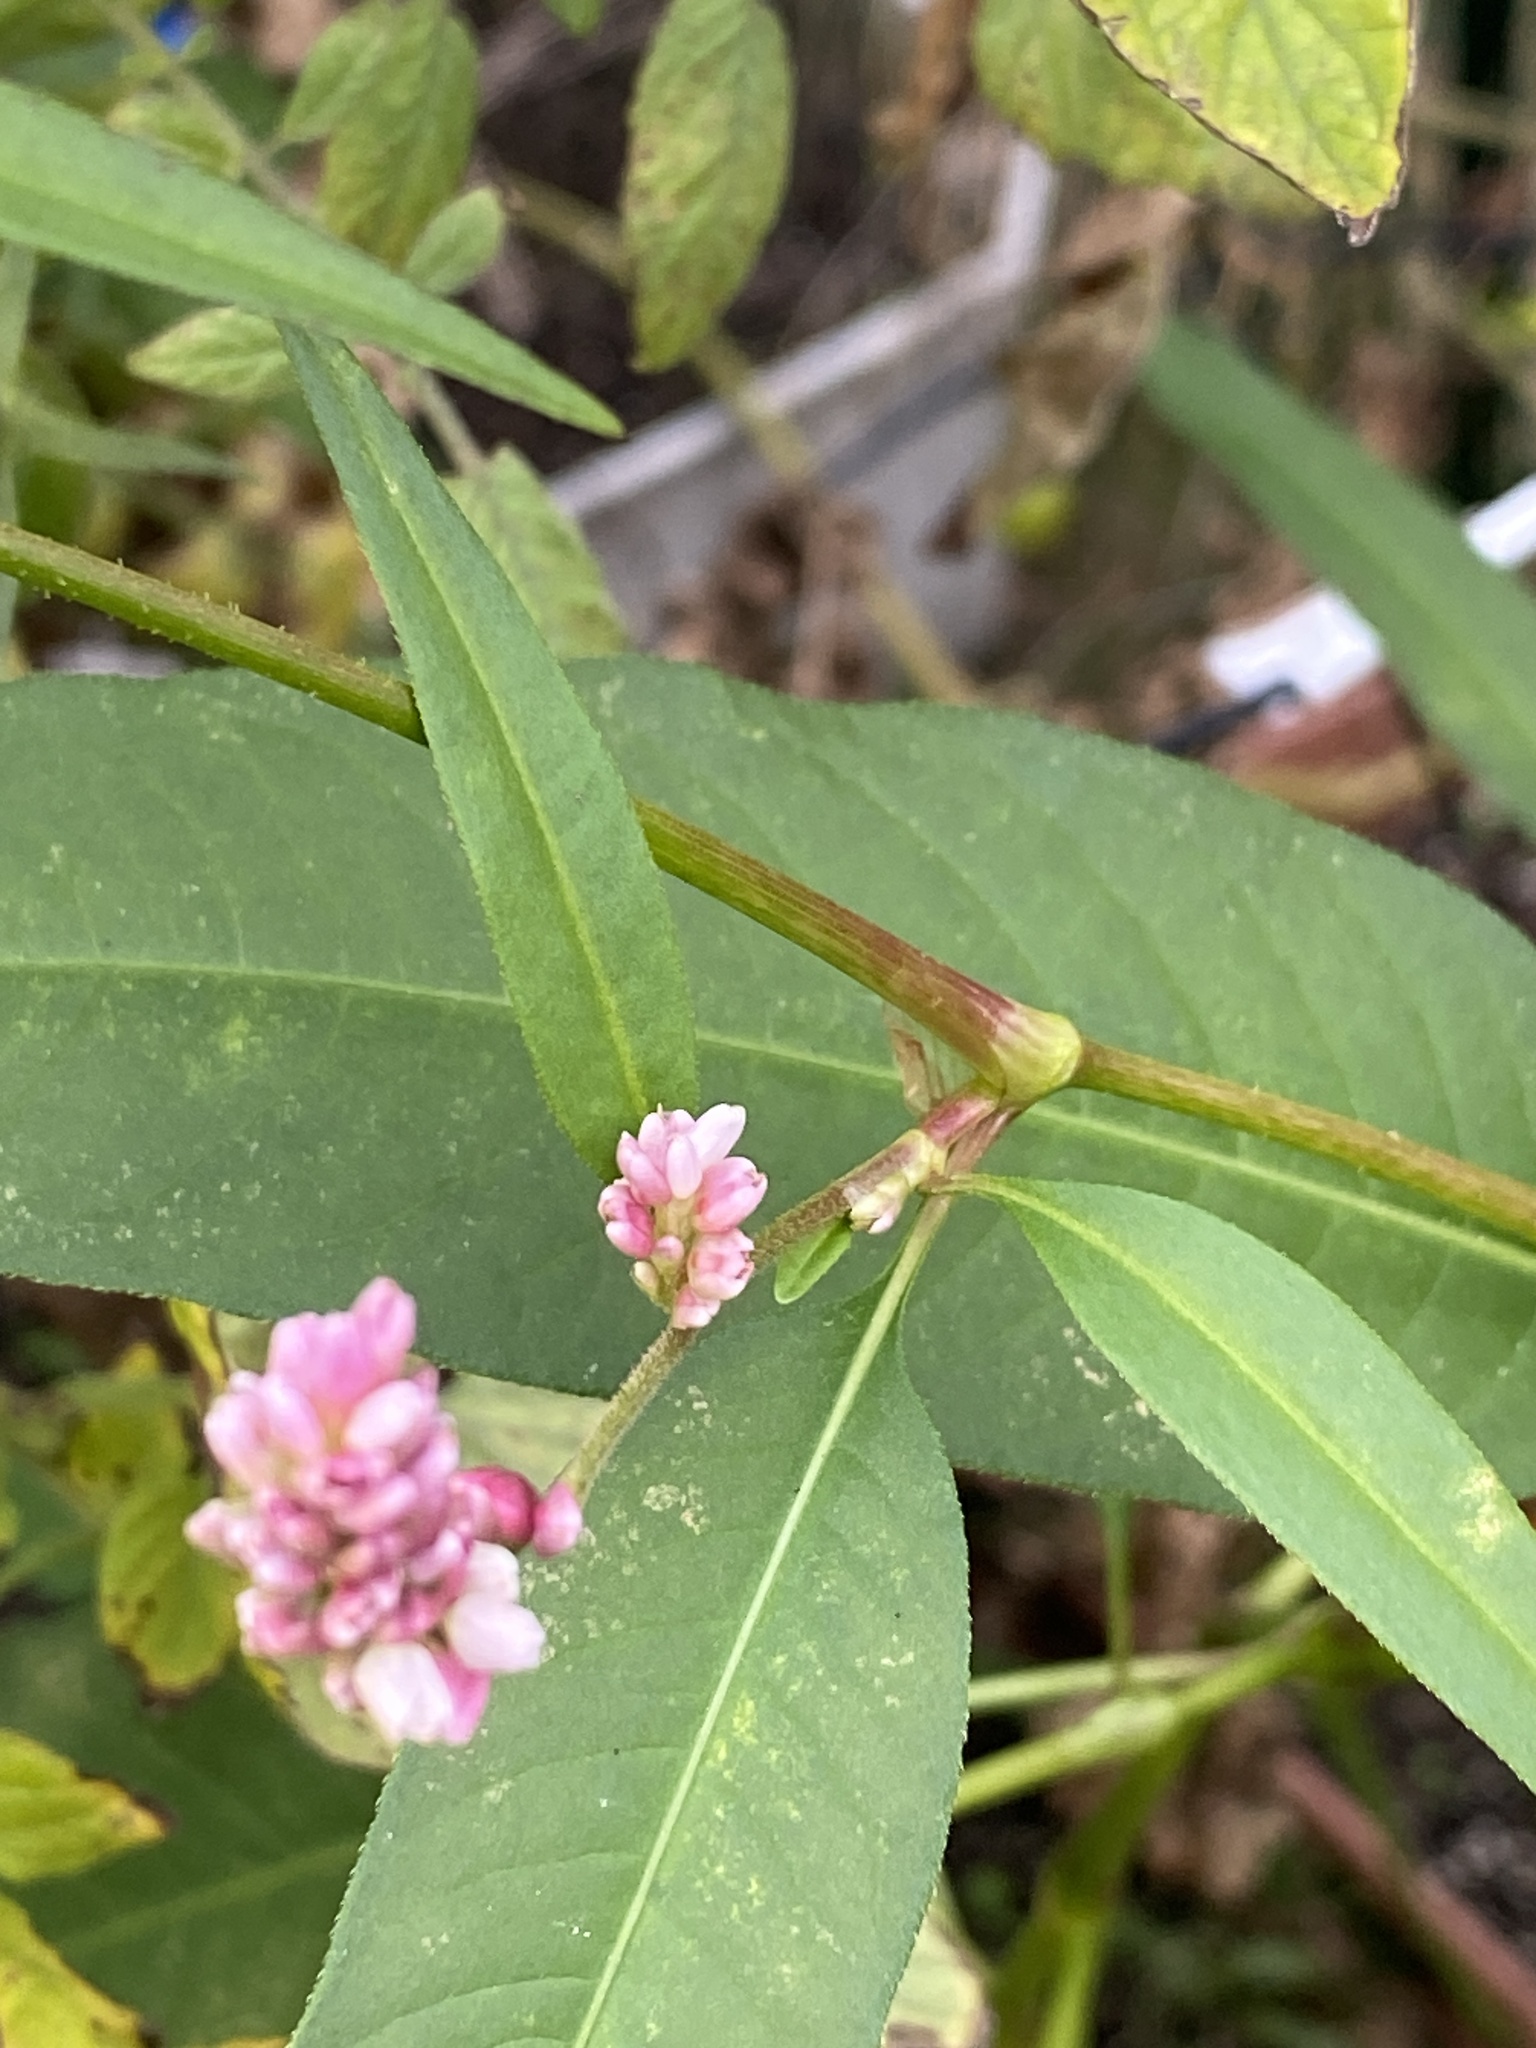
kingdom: Plantae
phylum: Tracheophyta
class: Magnoliopsida
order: Caryophyllales
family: Polygonaceae
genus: Persicaria
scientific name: Persicaria pensylvanica
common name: Pinkweed
